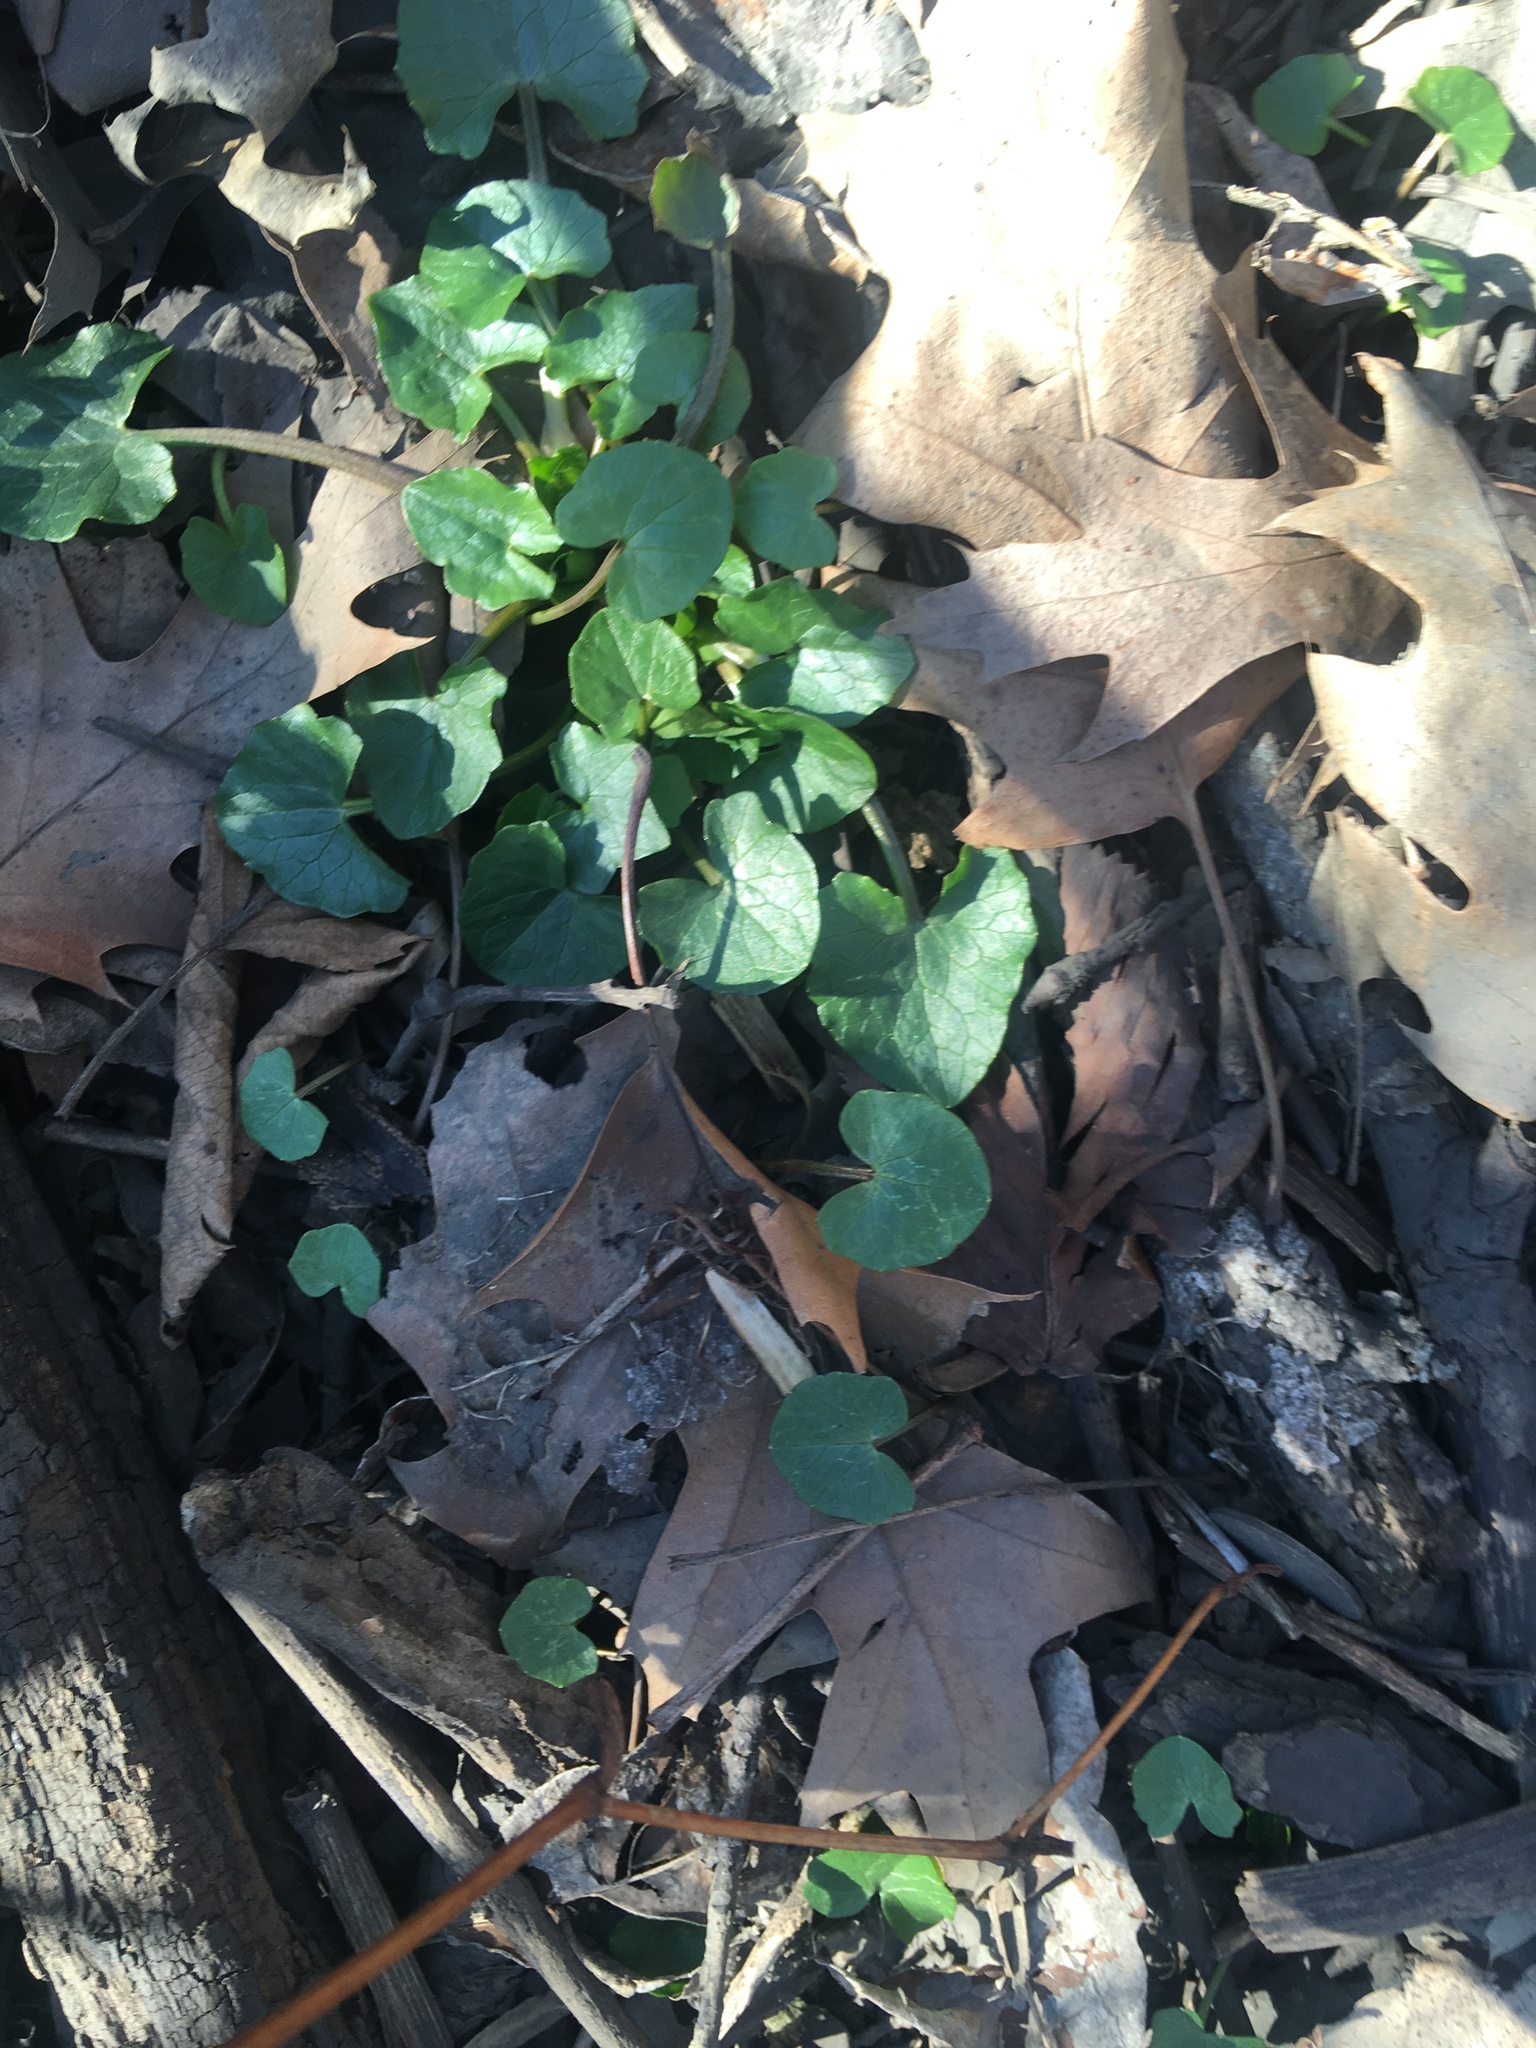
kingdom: Plantae
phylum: Tracheophyta
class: Magnoliopsida
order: Ranunculales
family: Ranunculaceae
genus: Ficaria
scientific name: Ficaria verna
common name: Lesser celandine
